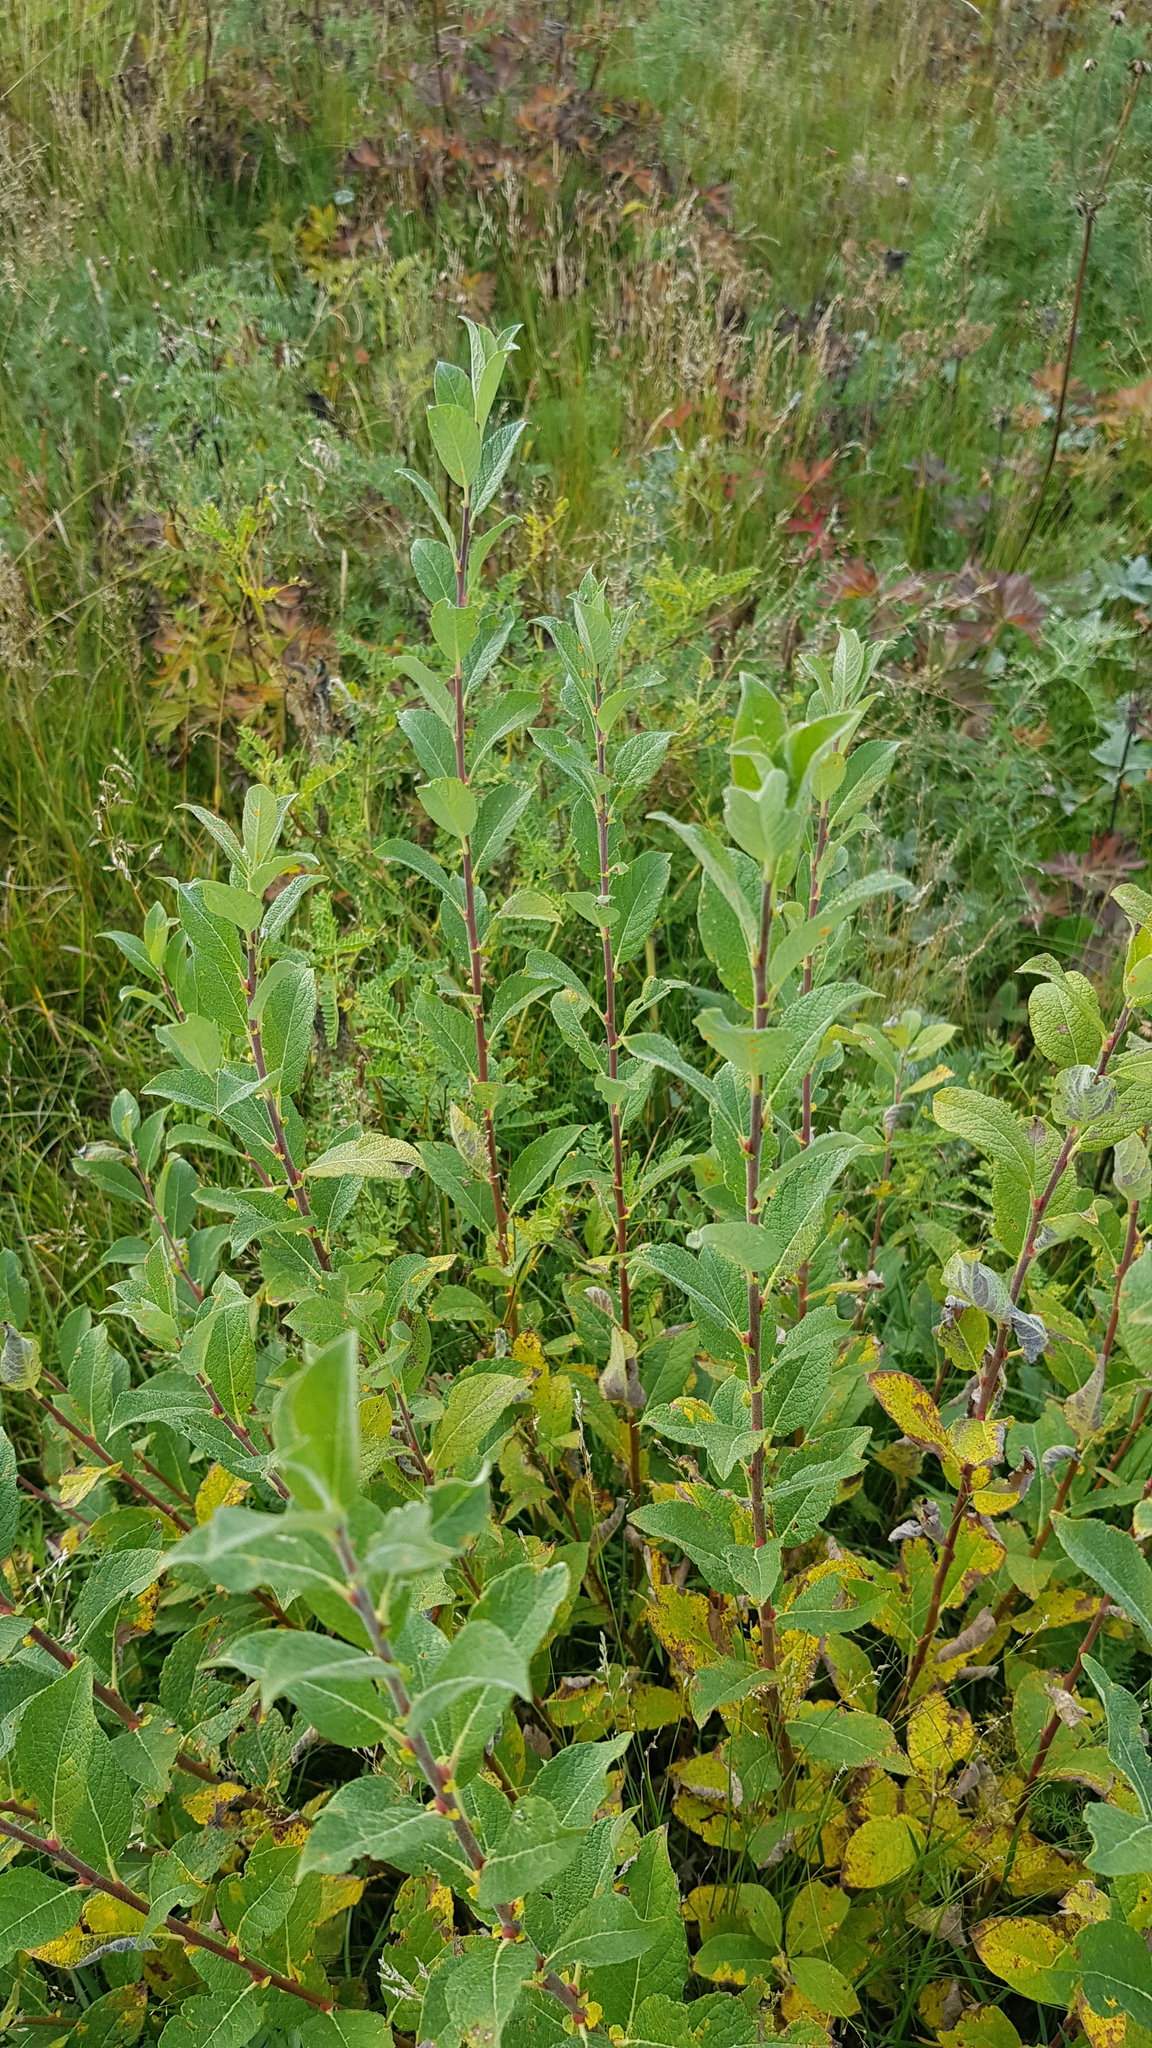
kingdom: Plantae
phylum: Tracheophyta
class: Magnoliopsida
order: Malpighiales
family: Salicaceae
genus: Salix
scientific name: Salix glauca
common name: Glaucous willow
